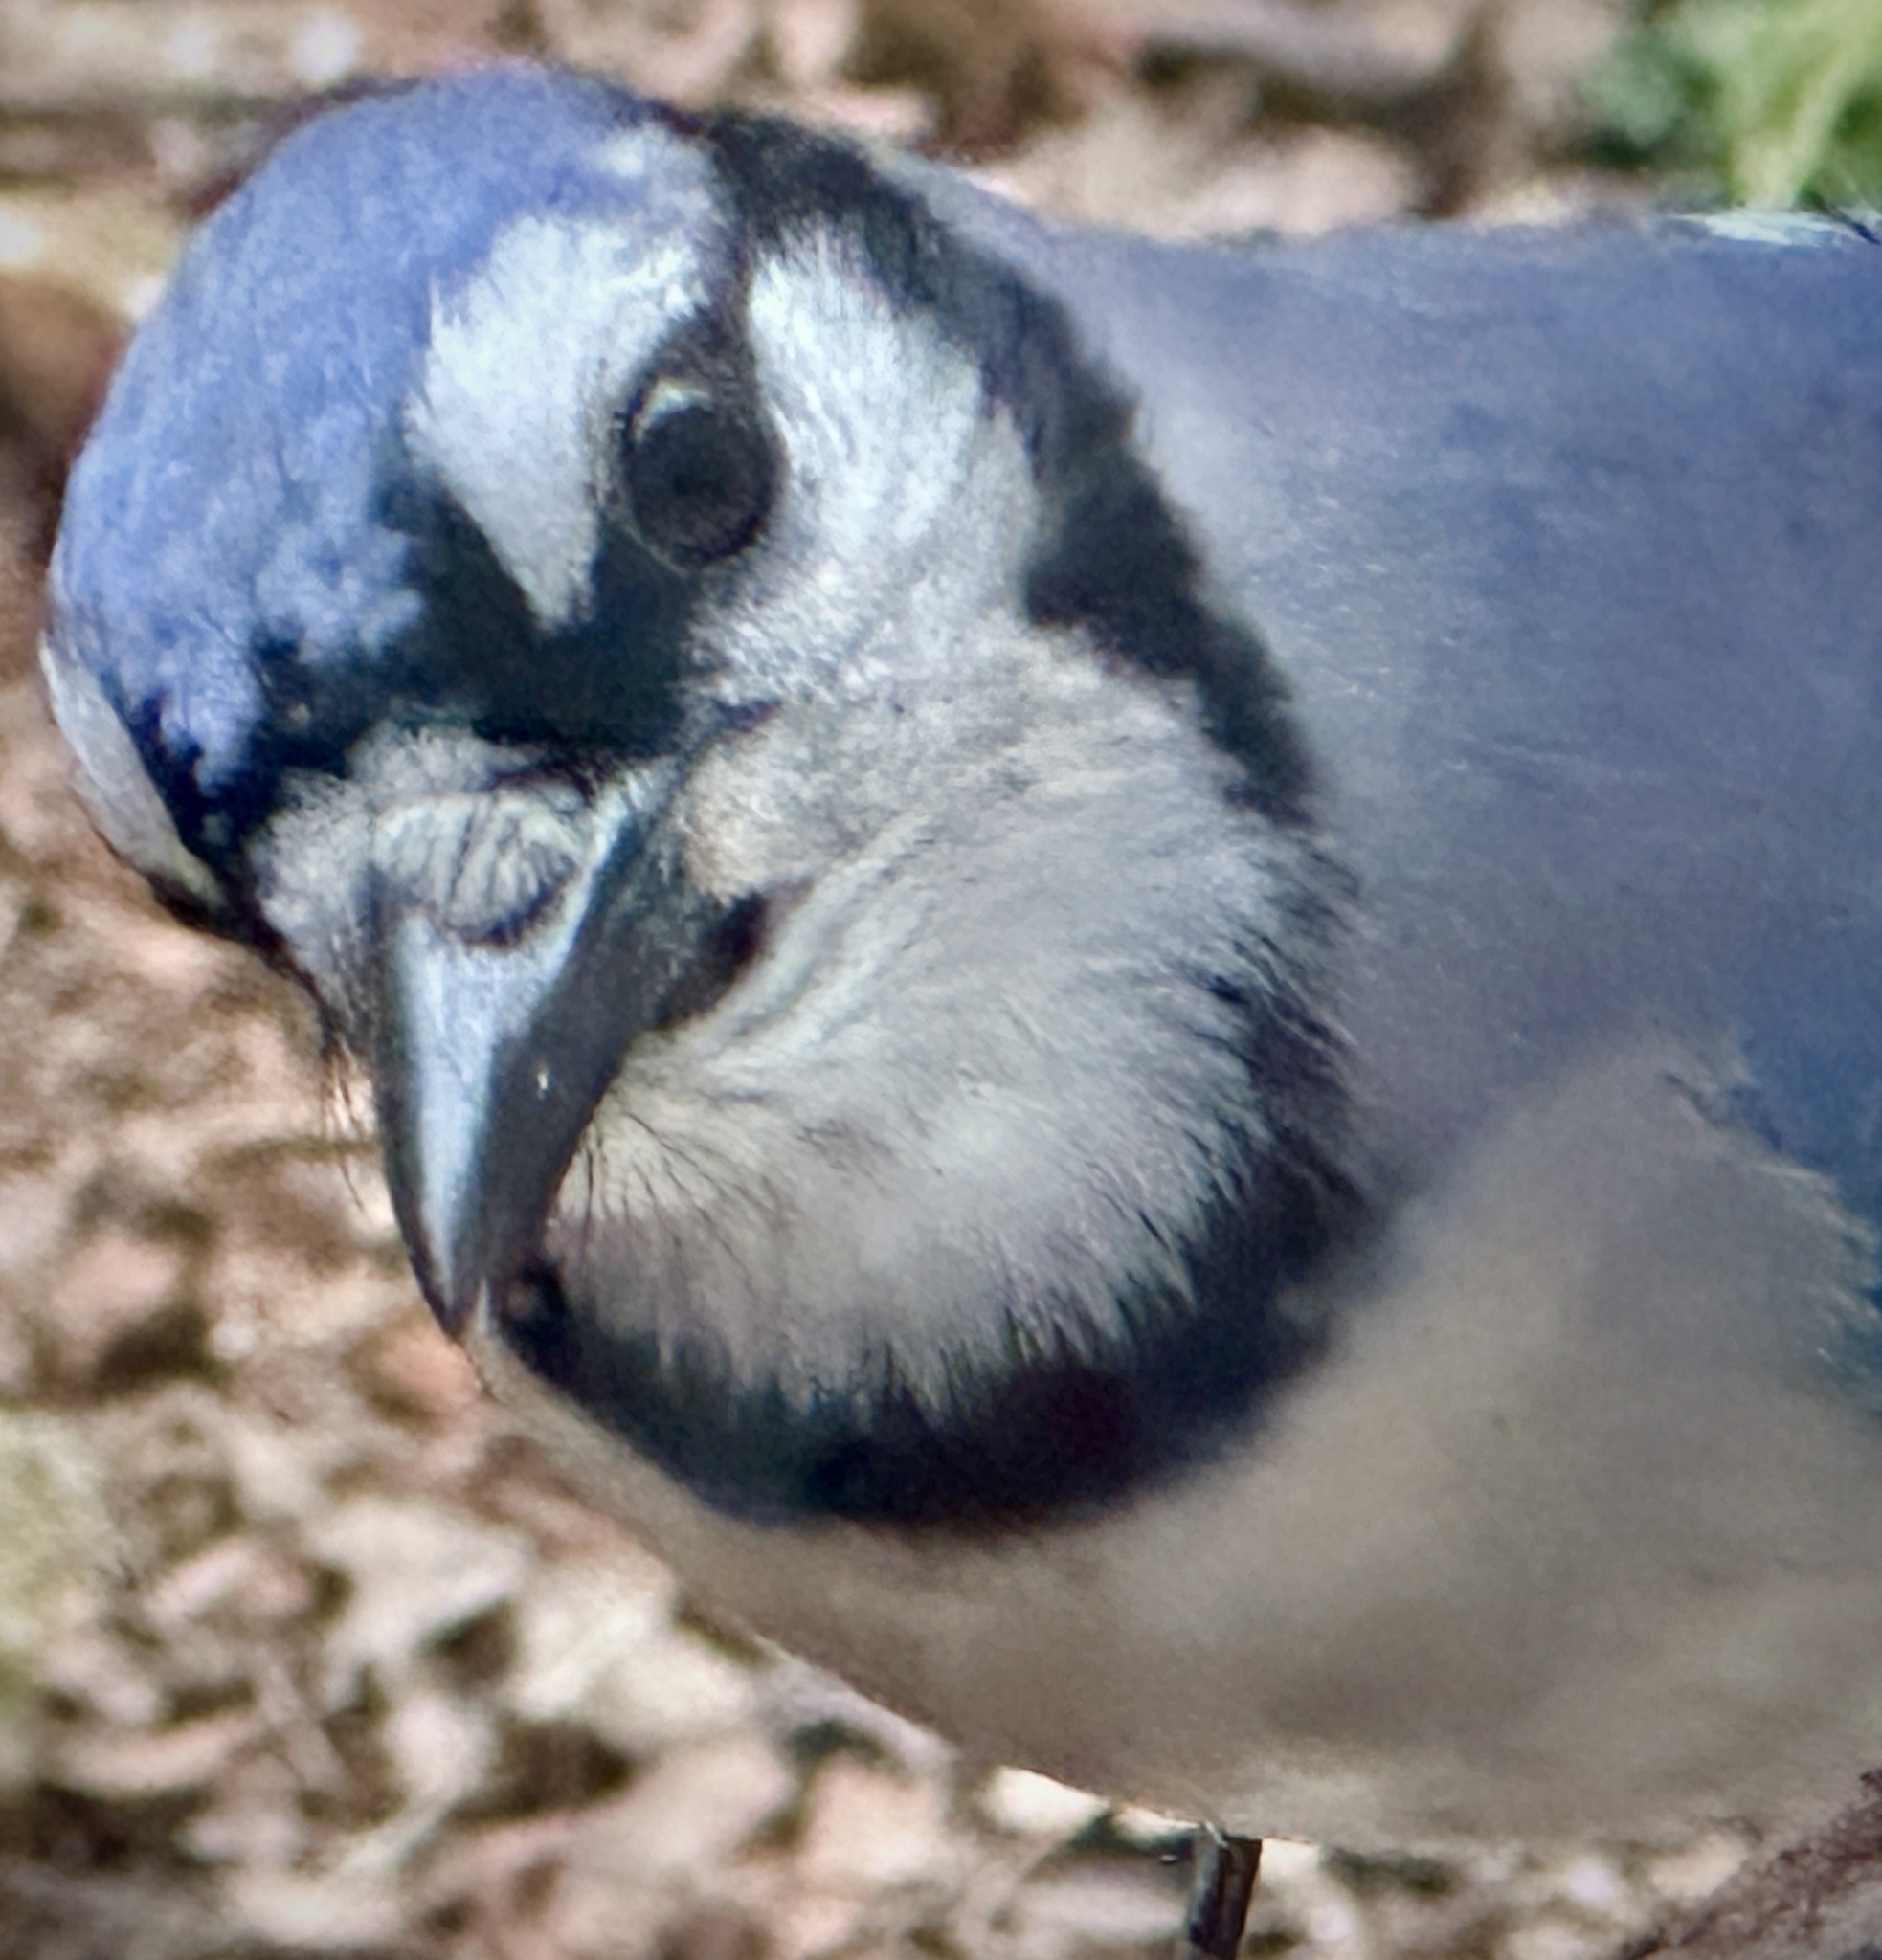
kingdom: Animalia
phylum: Chordata
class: Aves
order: Passeriformes
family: Corvidae
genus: Cyanocitta
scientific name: Cyanocitta cristata
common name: Blue jay
